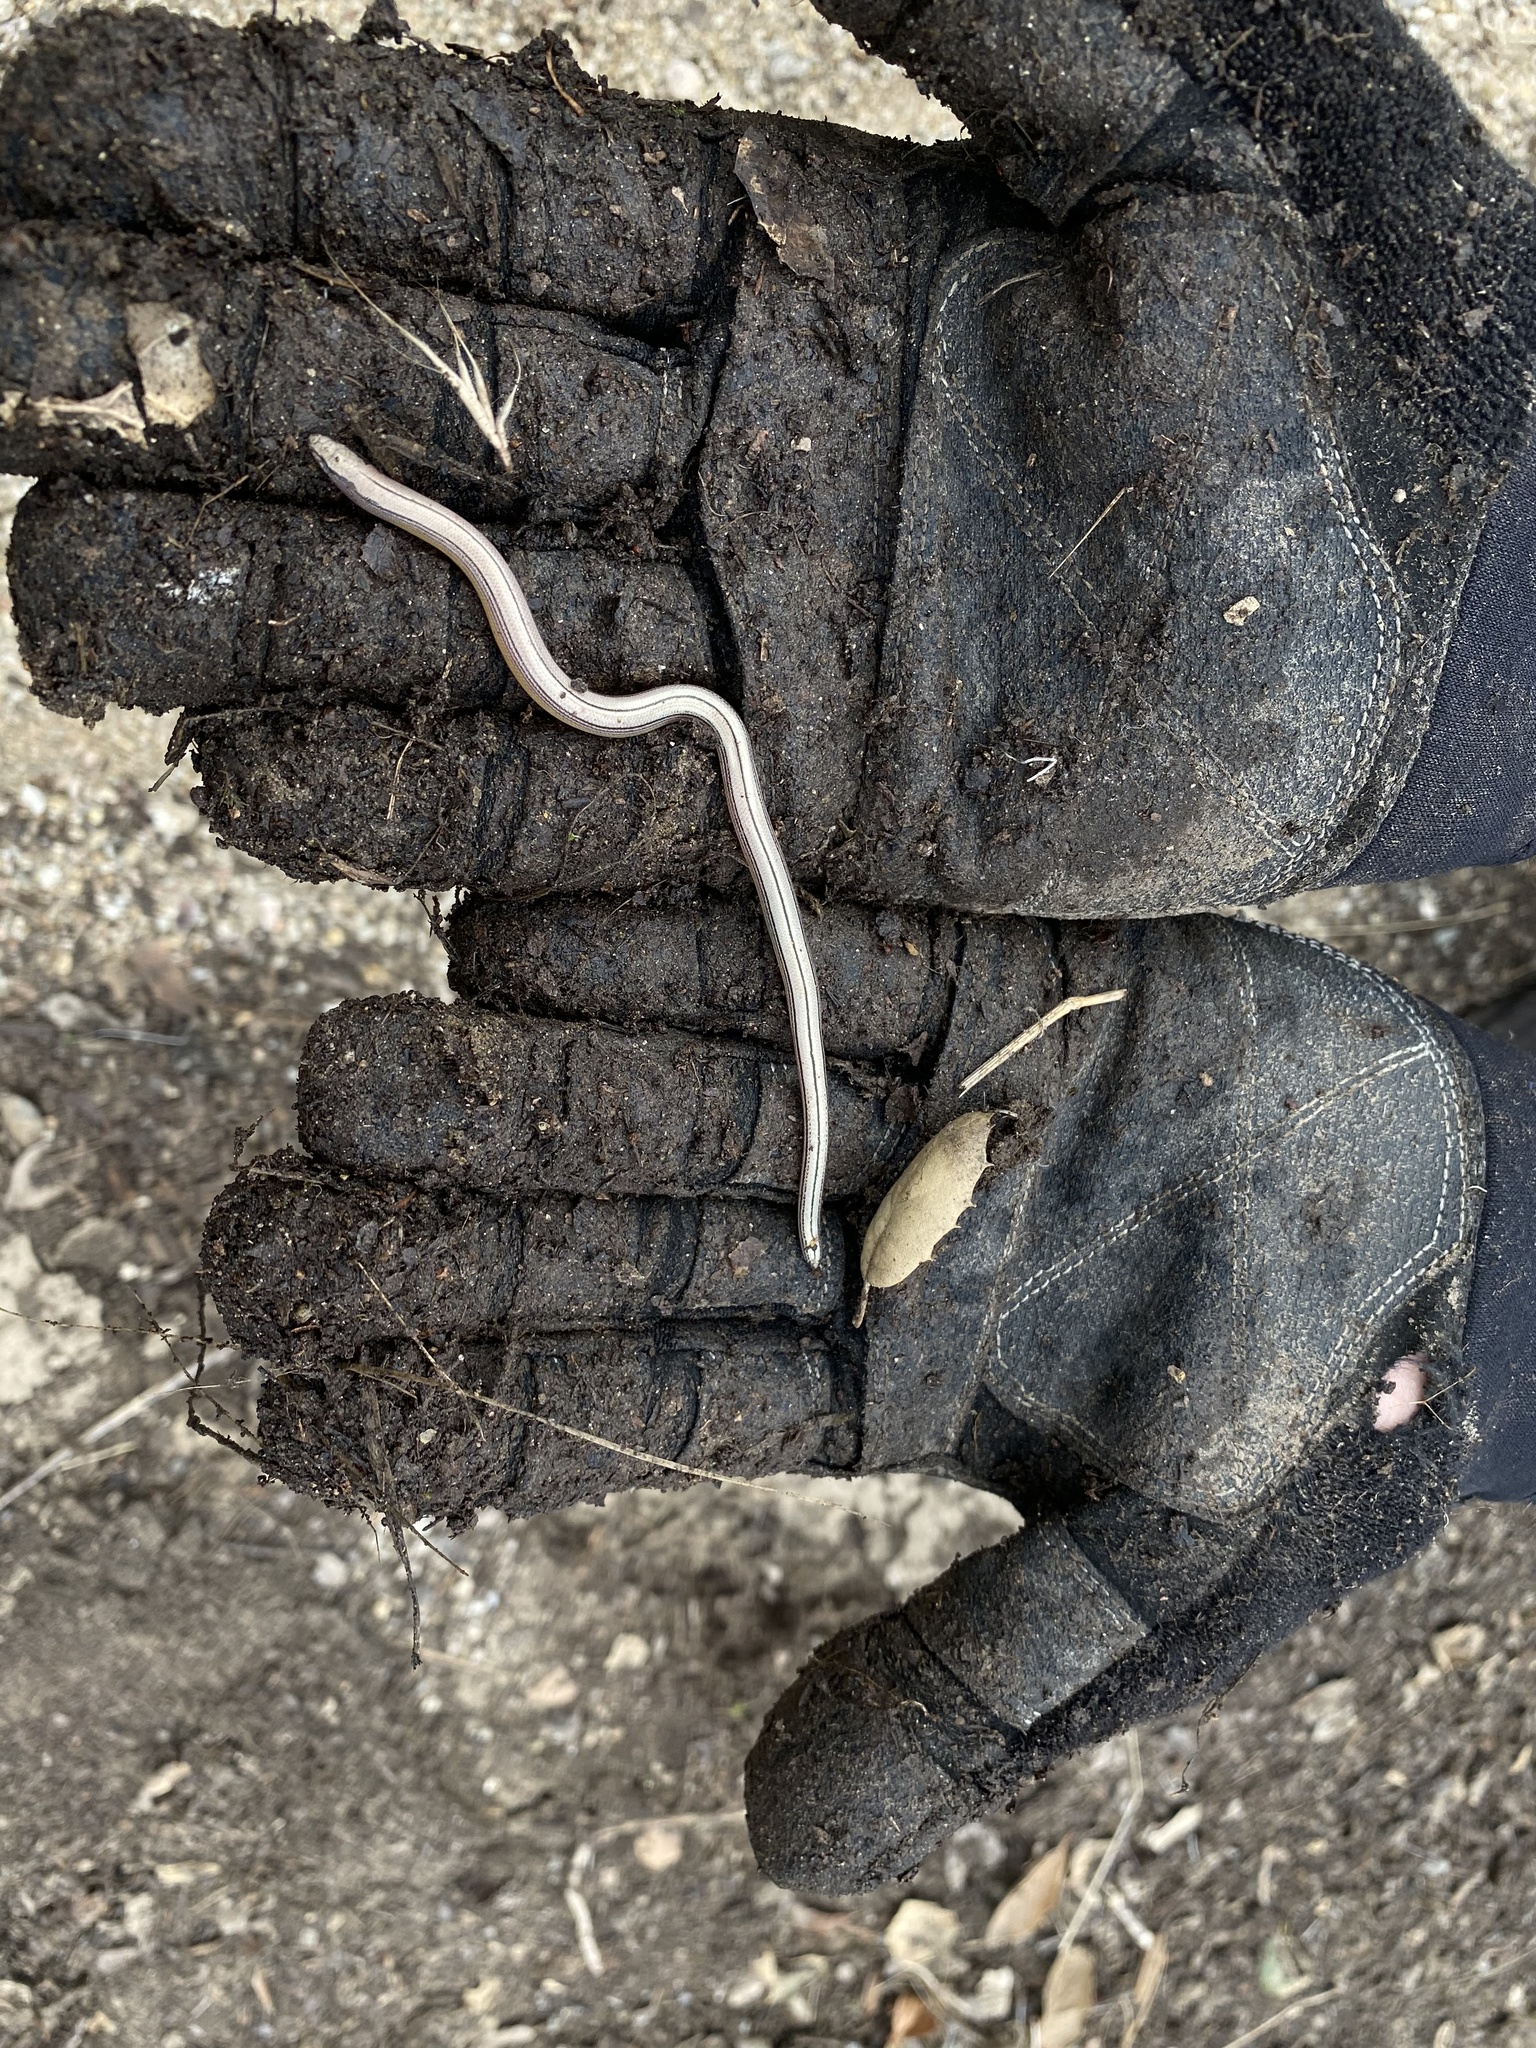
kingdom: Animalia
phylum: Chordata
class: Squamata
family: Anguidae
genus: Anniella
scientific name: Anniella pulchra
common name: California legless lizard
